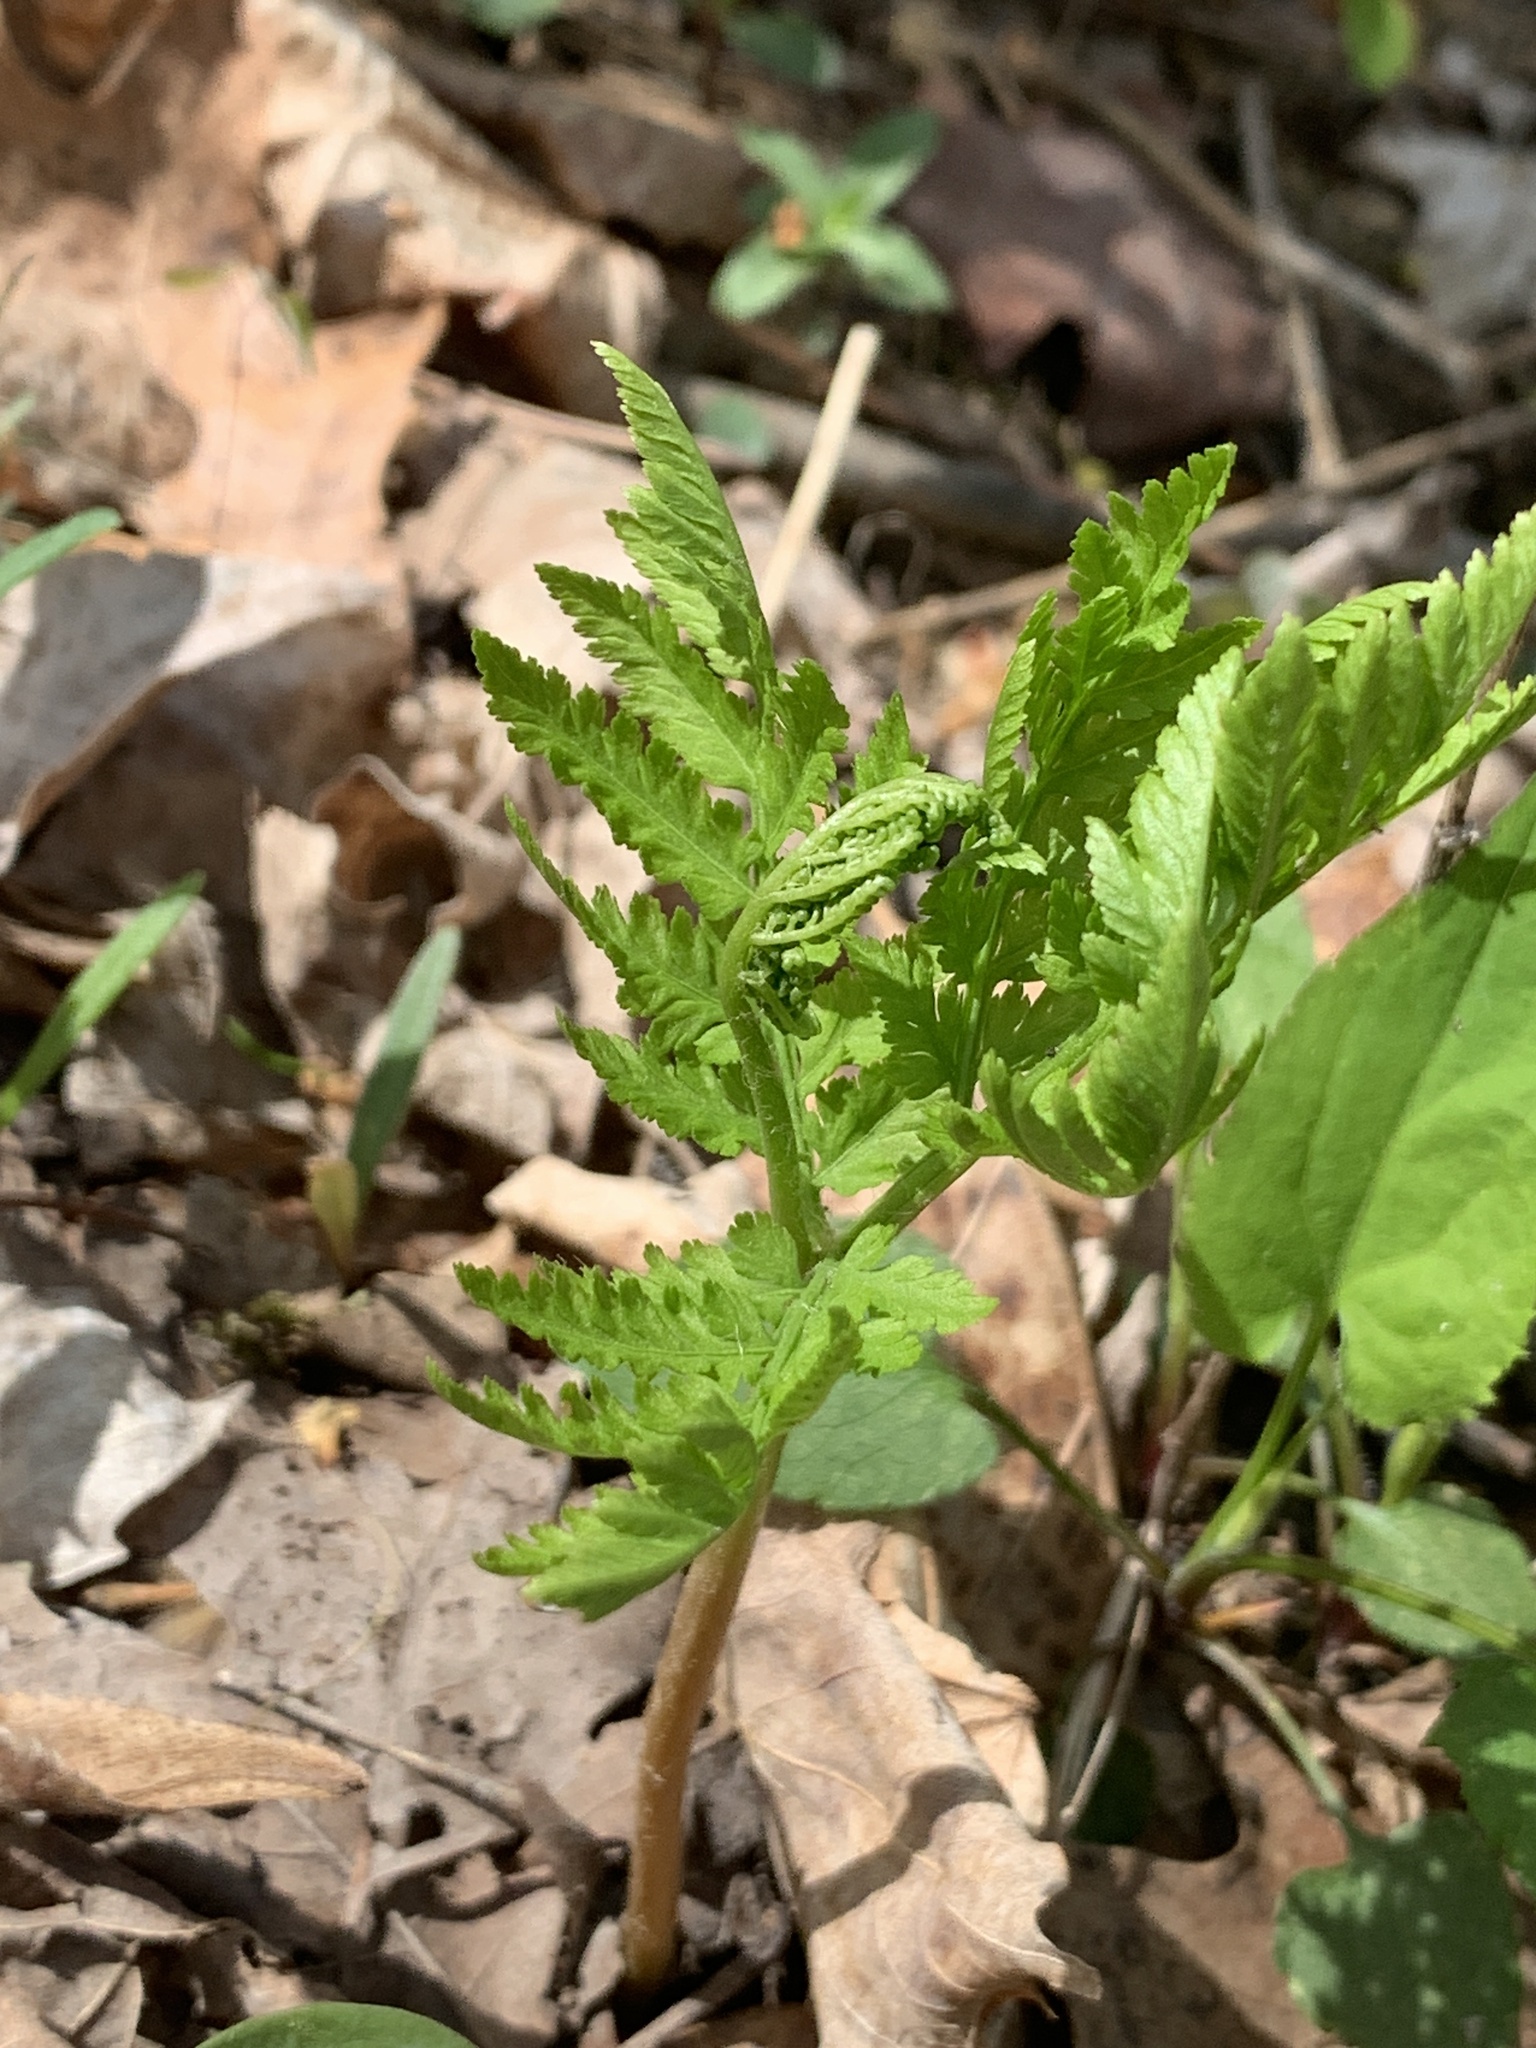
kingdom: Plantae
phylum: Tracheophyta
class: Polypodiopsida
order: Ophioglossales
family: Ophioglossaceae
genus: Botrypus
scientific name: Botrypus virginianus
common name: Common grapefern
